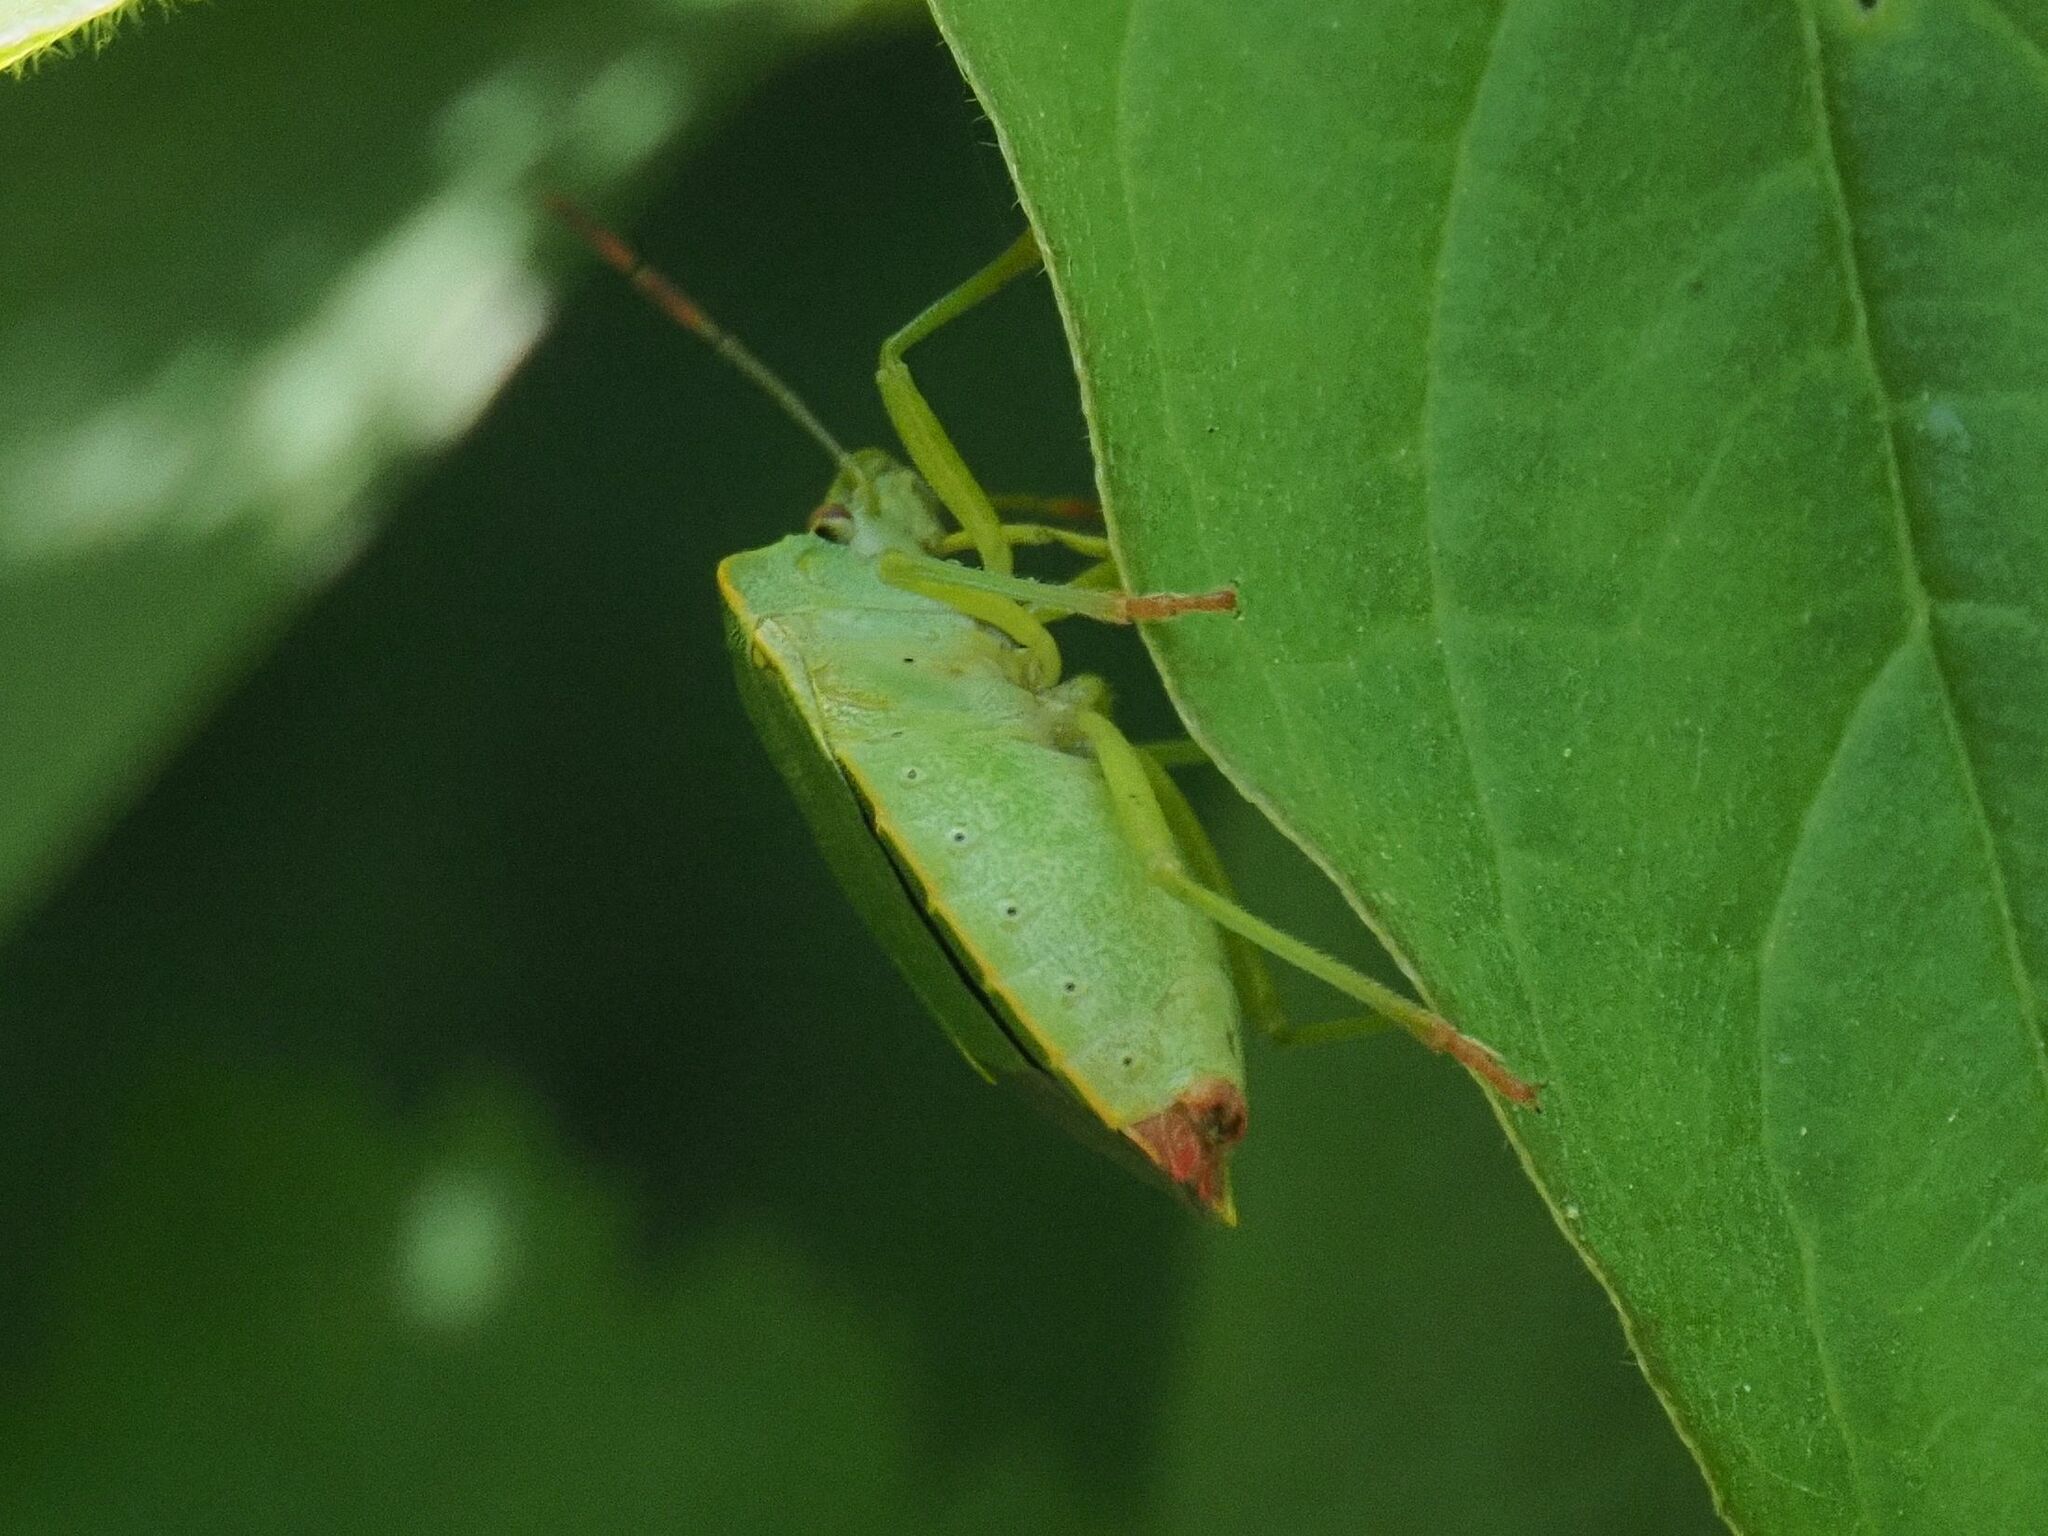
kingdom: Animalia
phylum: Arthropoda
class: Insecta
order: Hemiptera
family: Pentatomidae
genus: Palomena
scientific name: Palomena prasina
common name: Green shieldbug
